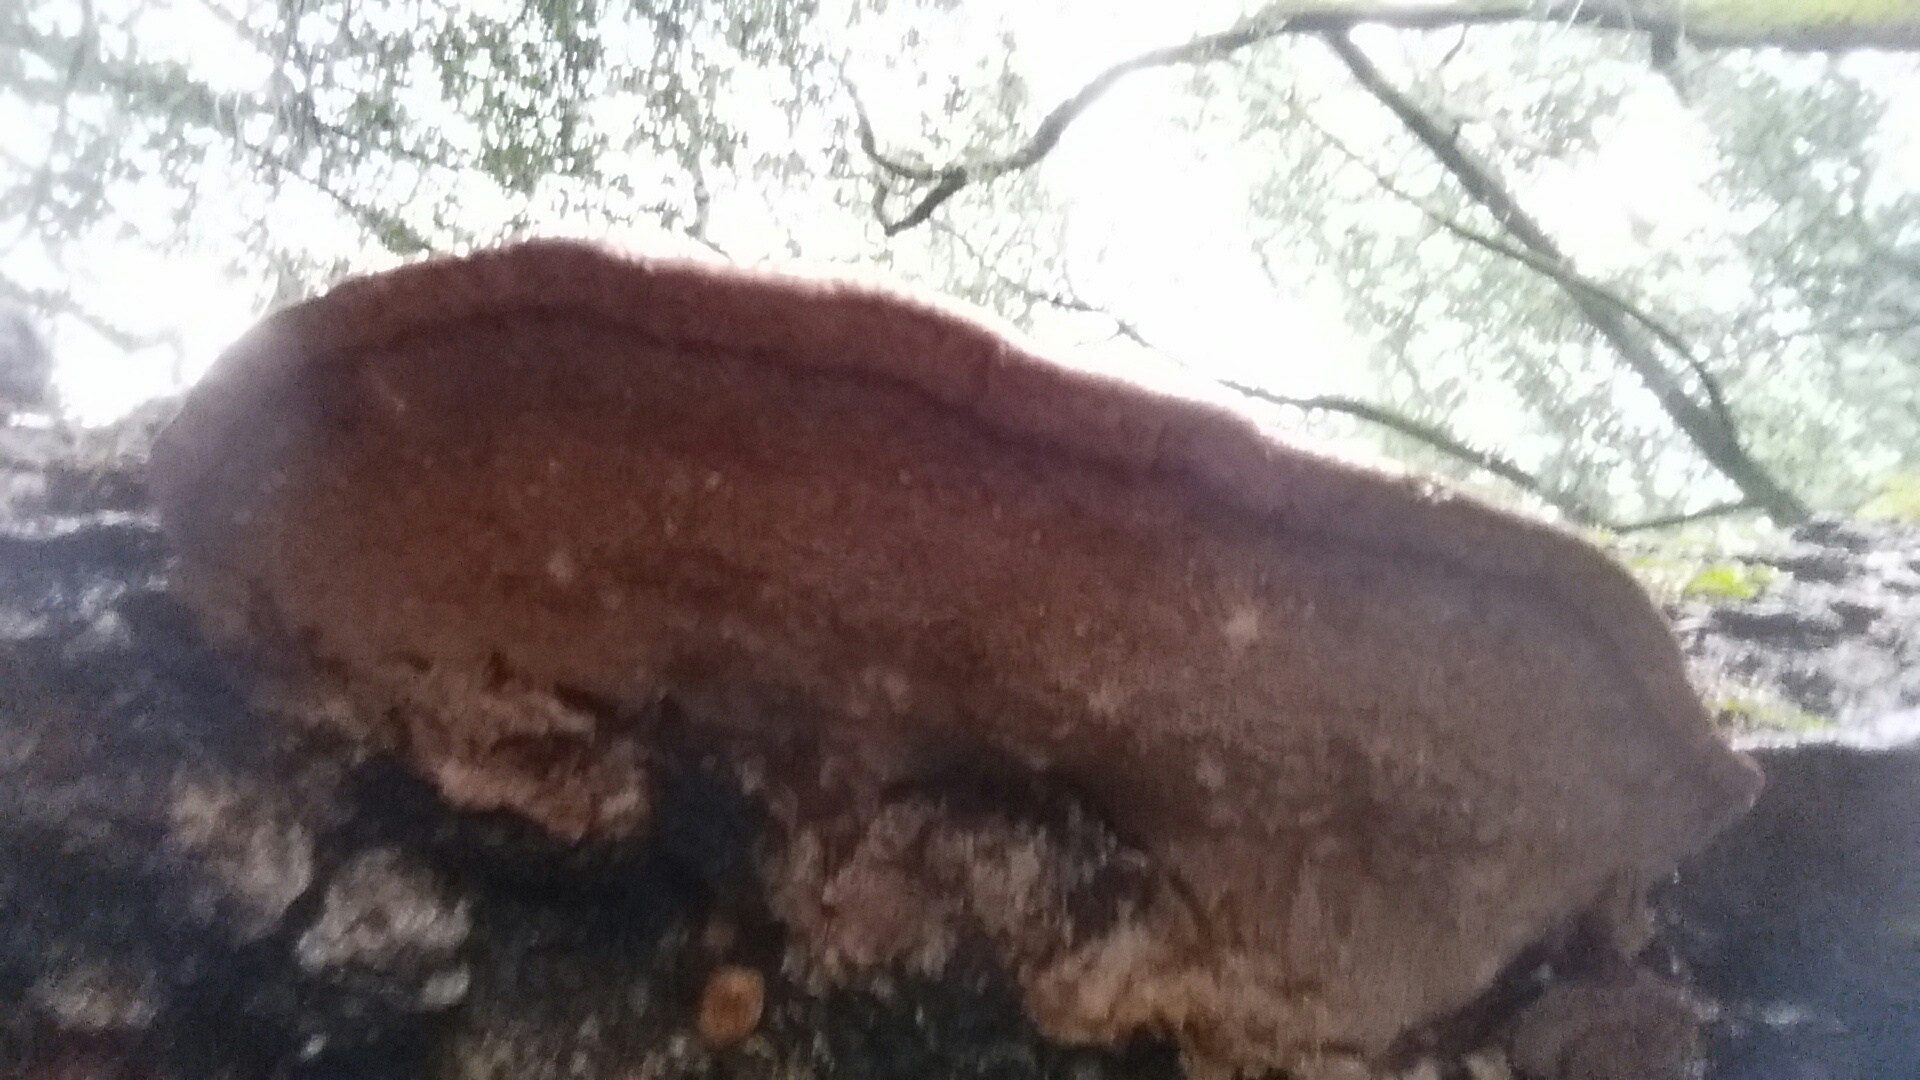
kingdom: Fungi
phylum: Basidiomycota
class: Agaricomycetes
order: Polyporales
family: Fomitopsidaceae
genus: Rhodofomes
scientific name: Rhodofomes cajanderi
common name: Rosy conk
